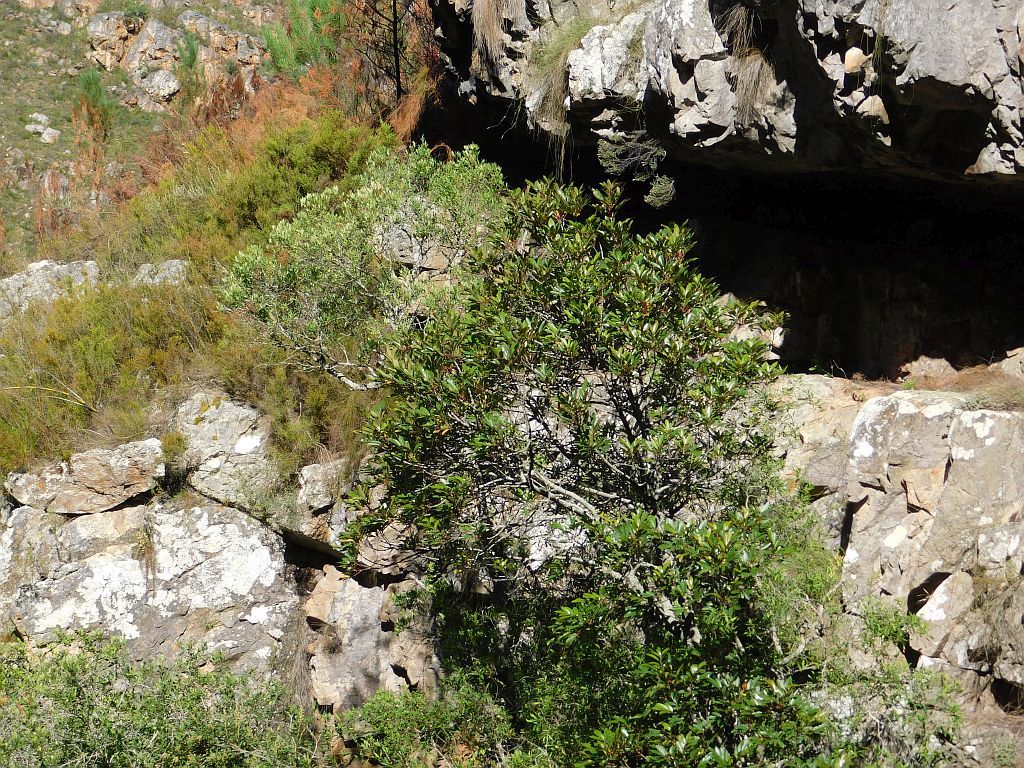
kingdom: Plantae
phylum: Tracheophyta
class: Magnoliopsida
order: Oxalidales
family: Cunoniaceae
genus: Cunonia
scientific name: Cunonia capensis
